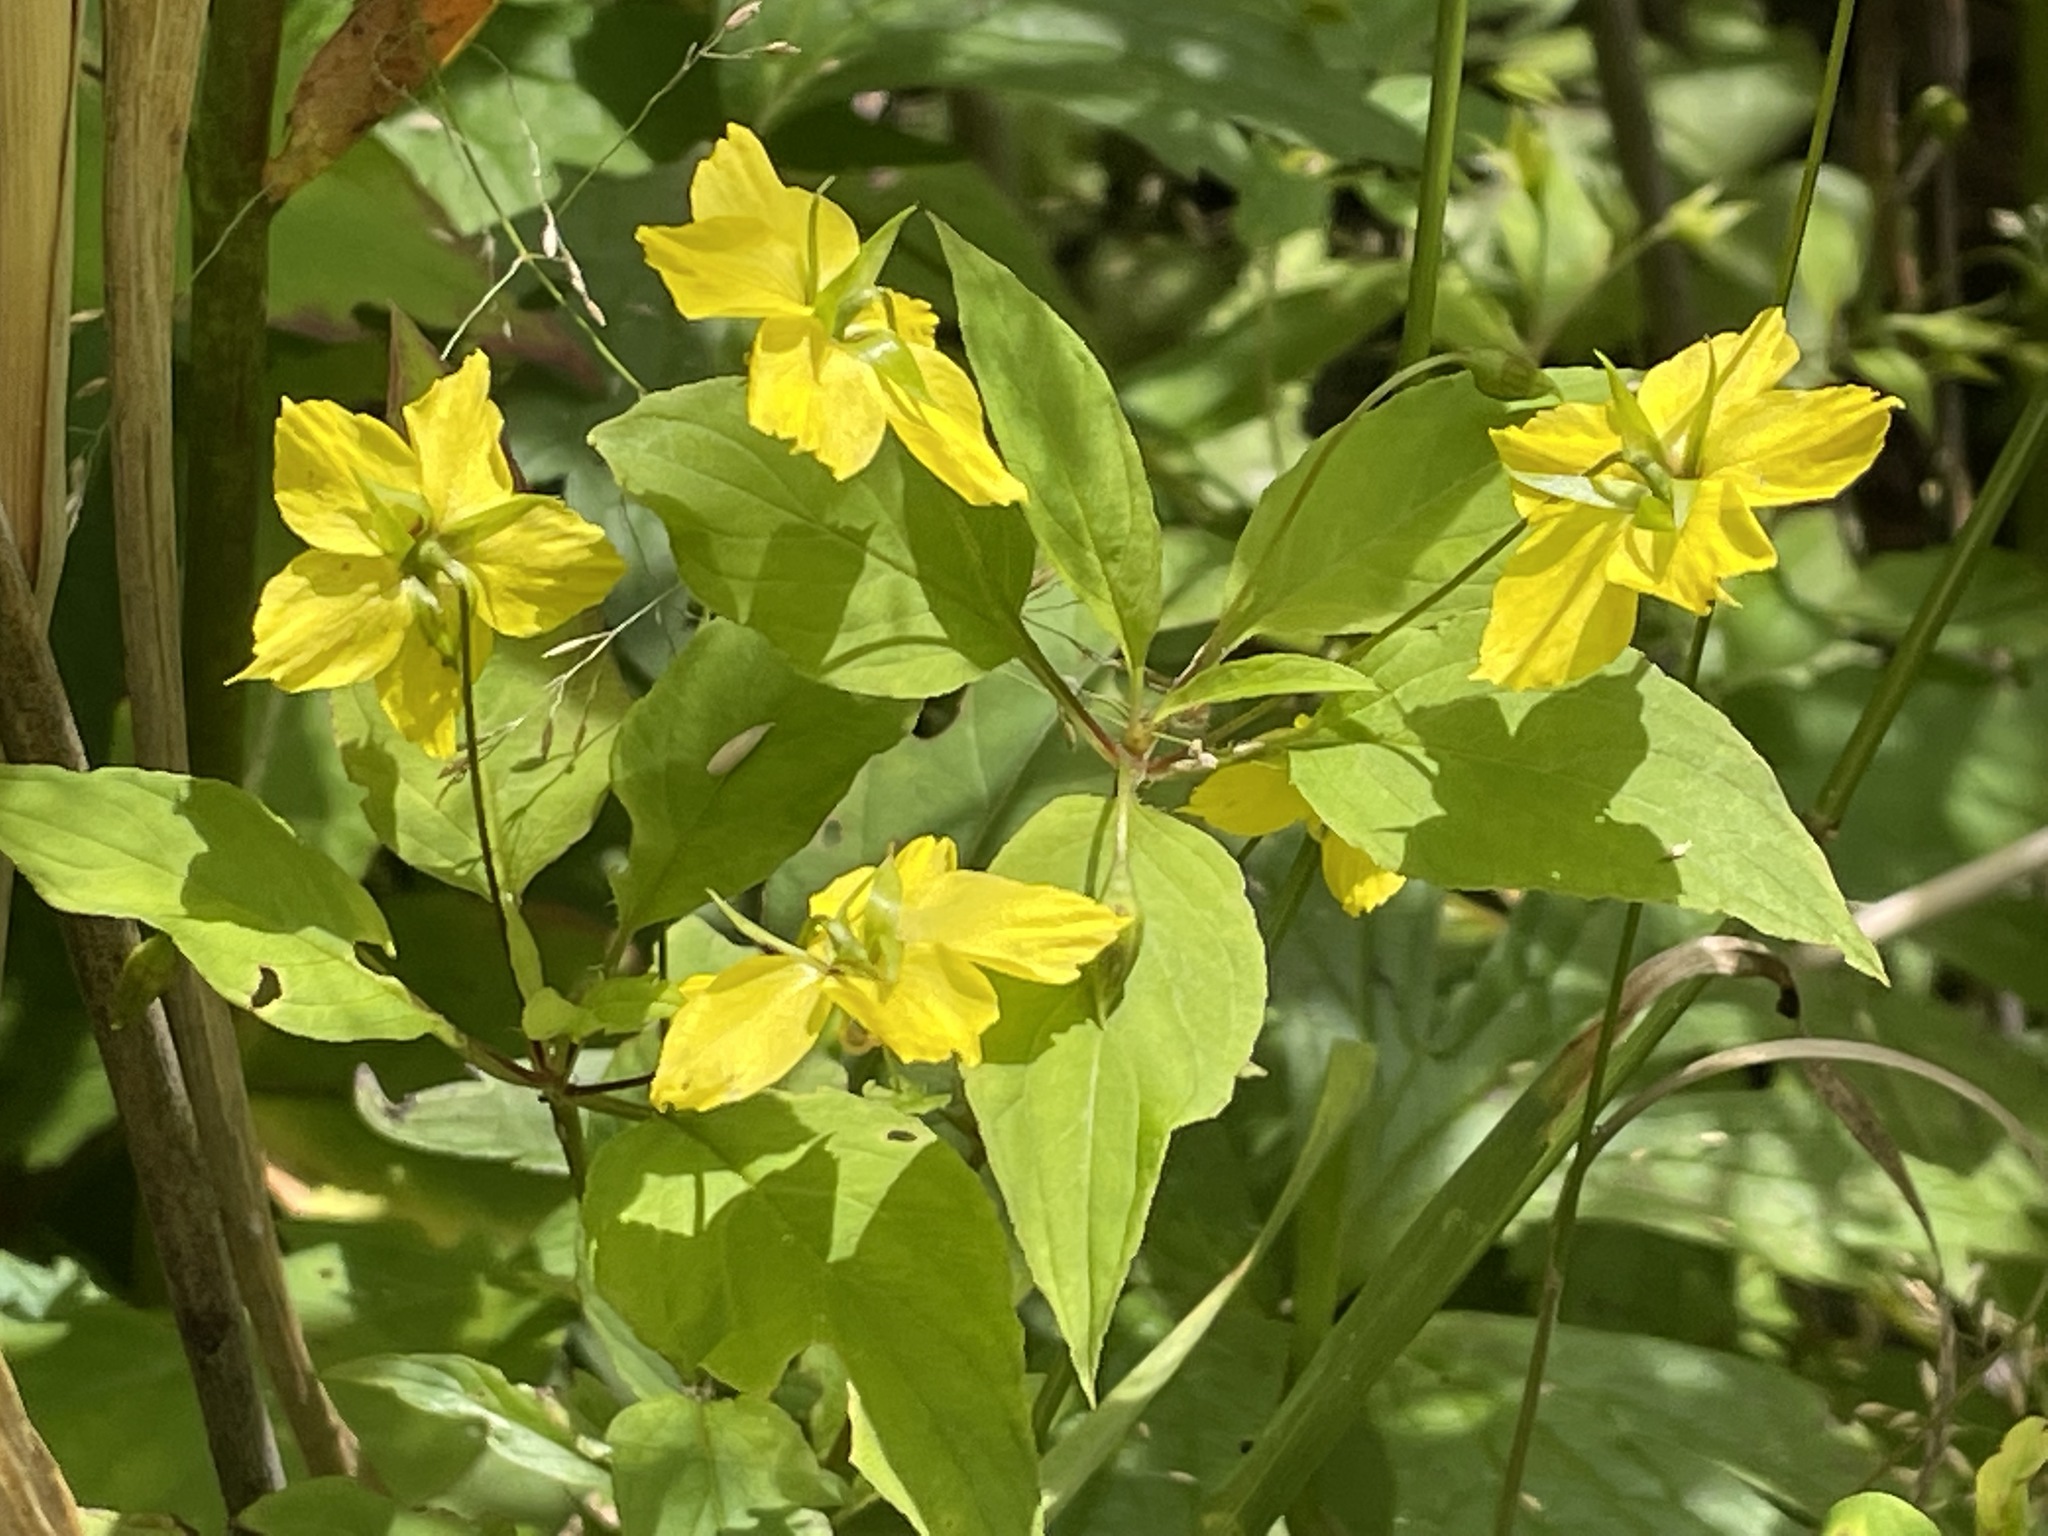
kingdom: Plantae
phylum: Tracheophyta
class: Magnoliopsida
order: Ericales
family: Primulaceae
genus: Lysimachia
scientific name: Lysimachia ciliata
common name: Fringed loosestrife
